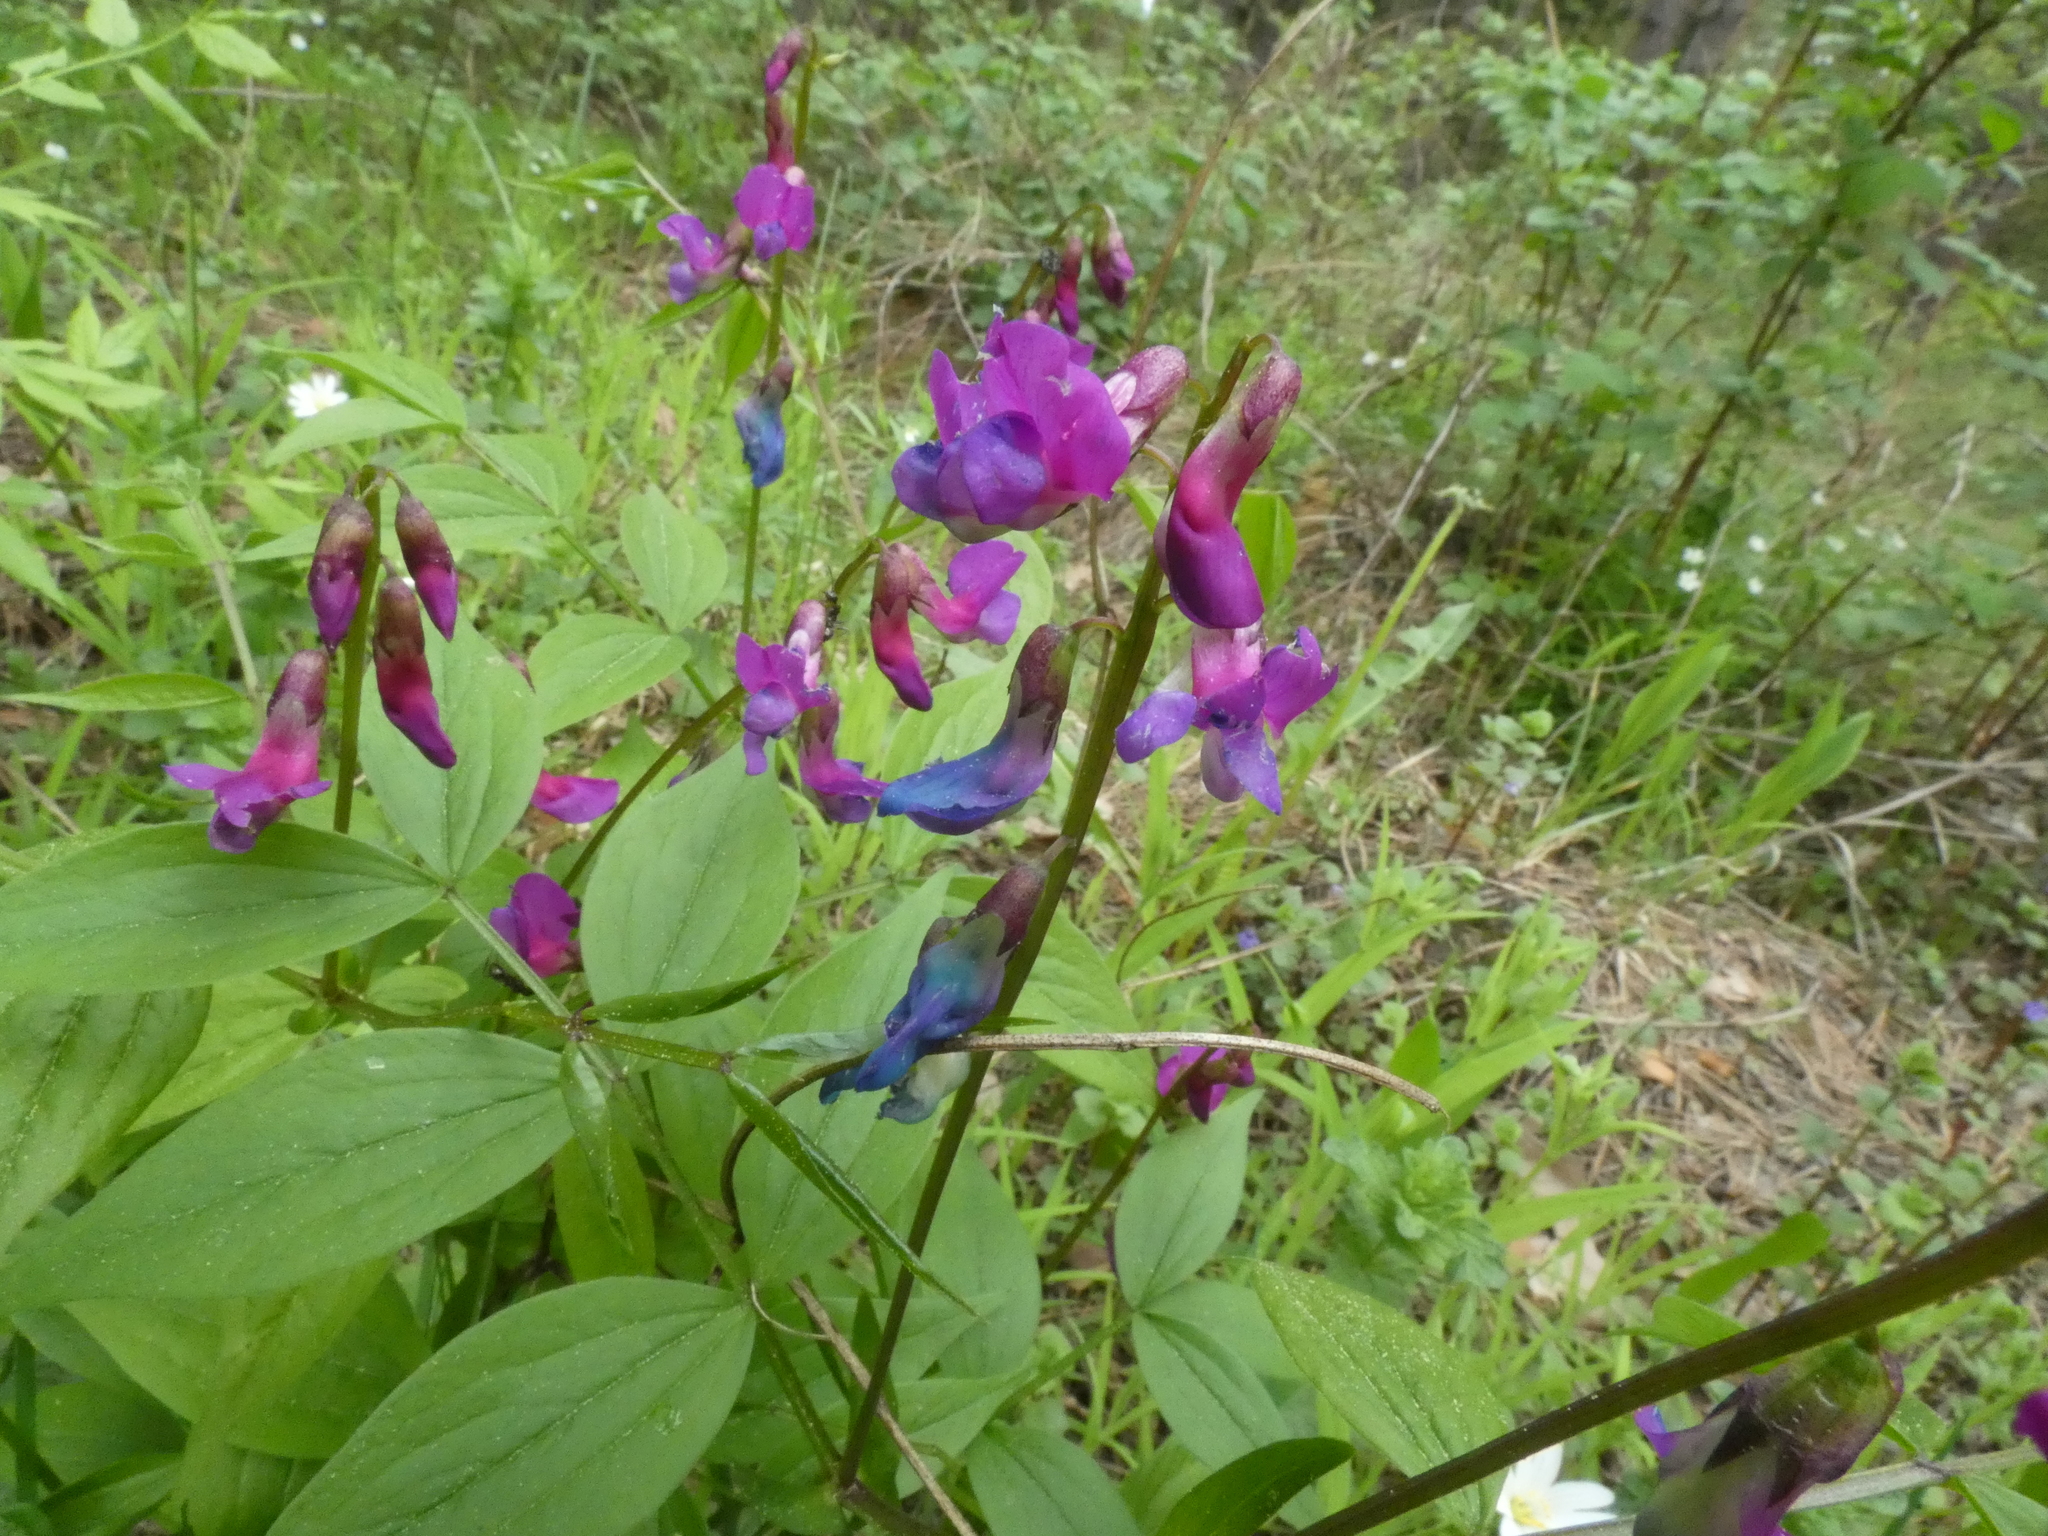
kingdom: Plantae
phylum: Tracheophyta
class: Magnoliopsida
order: Fabales
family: Fabaceae
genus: Lathyrus
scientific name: Lathyrus vernus
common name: Spring pea
